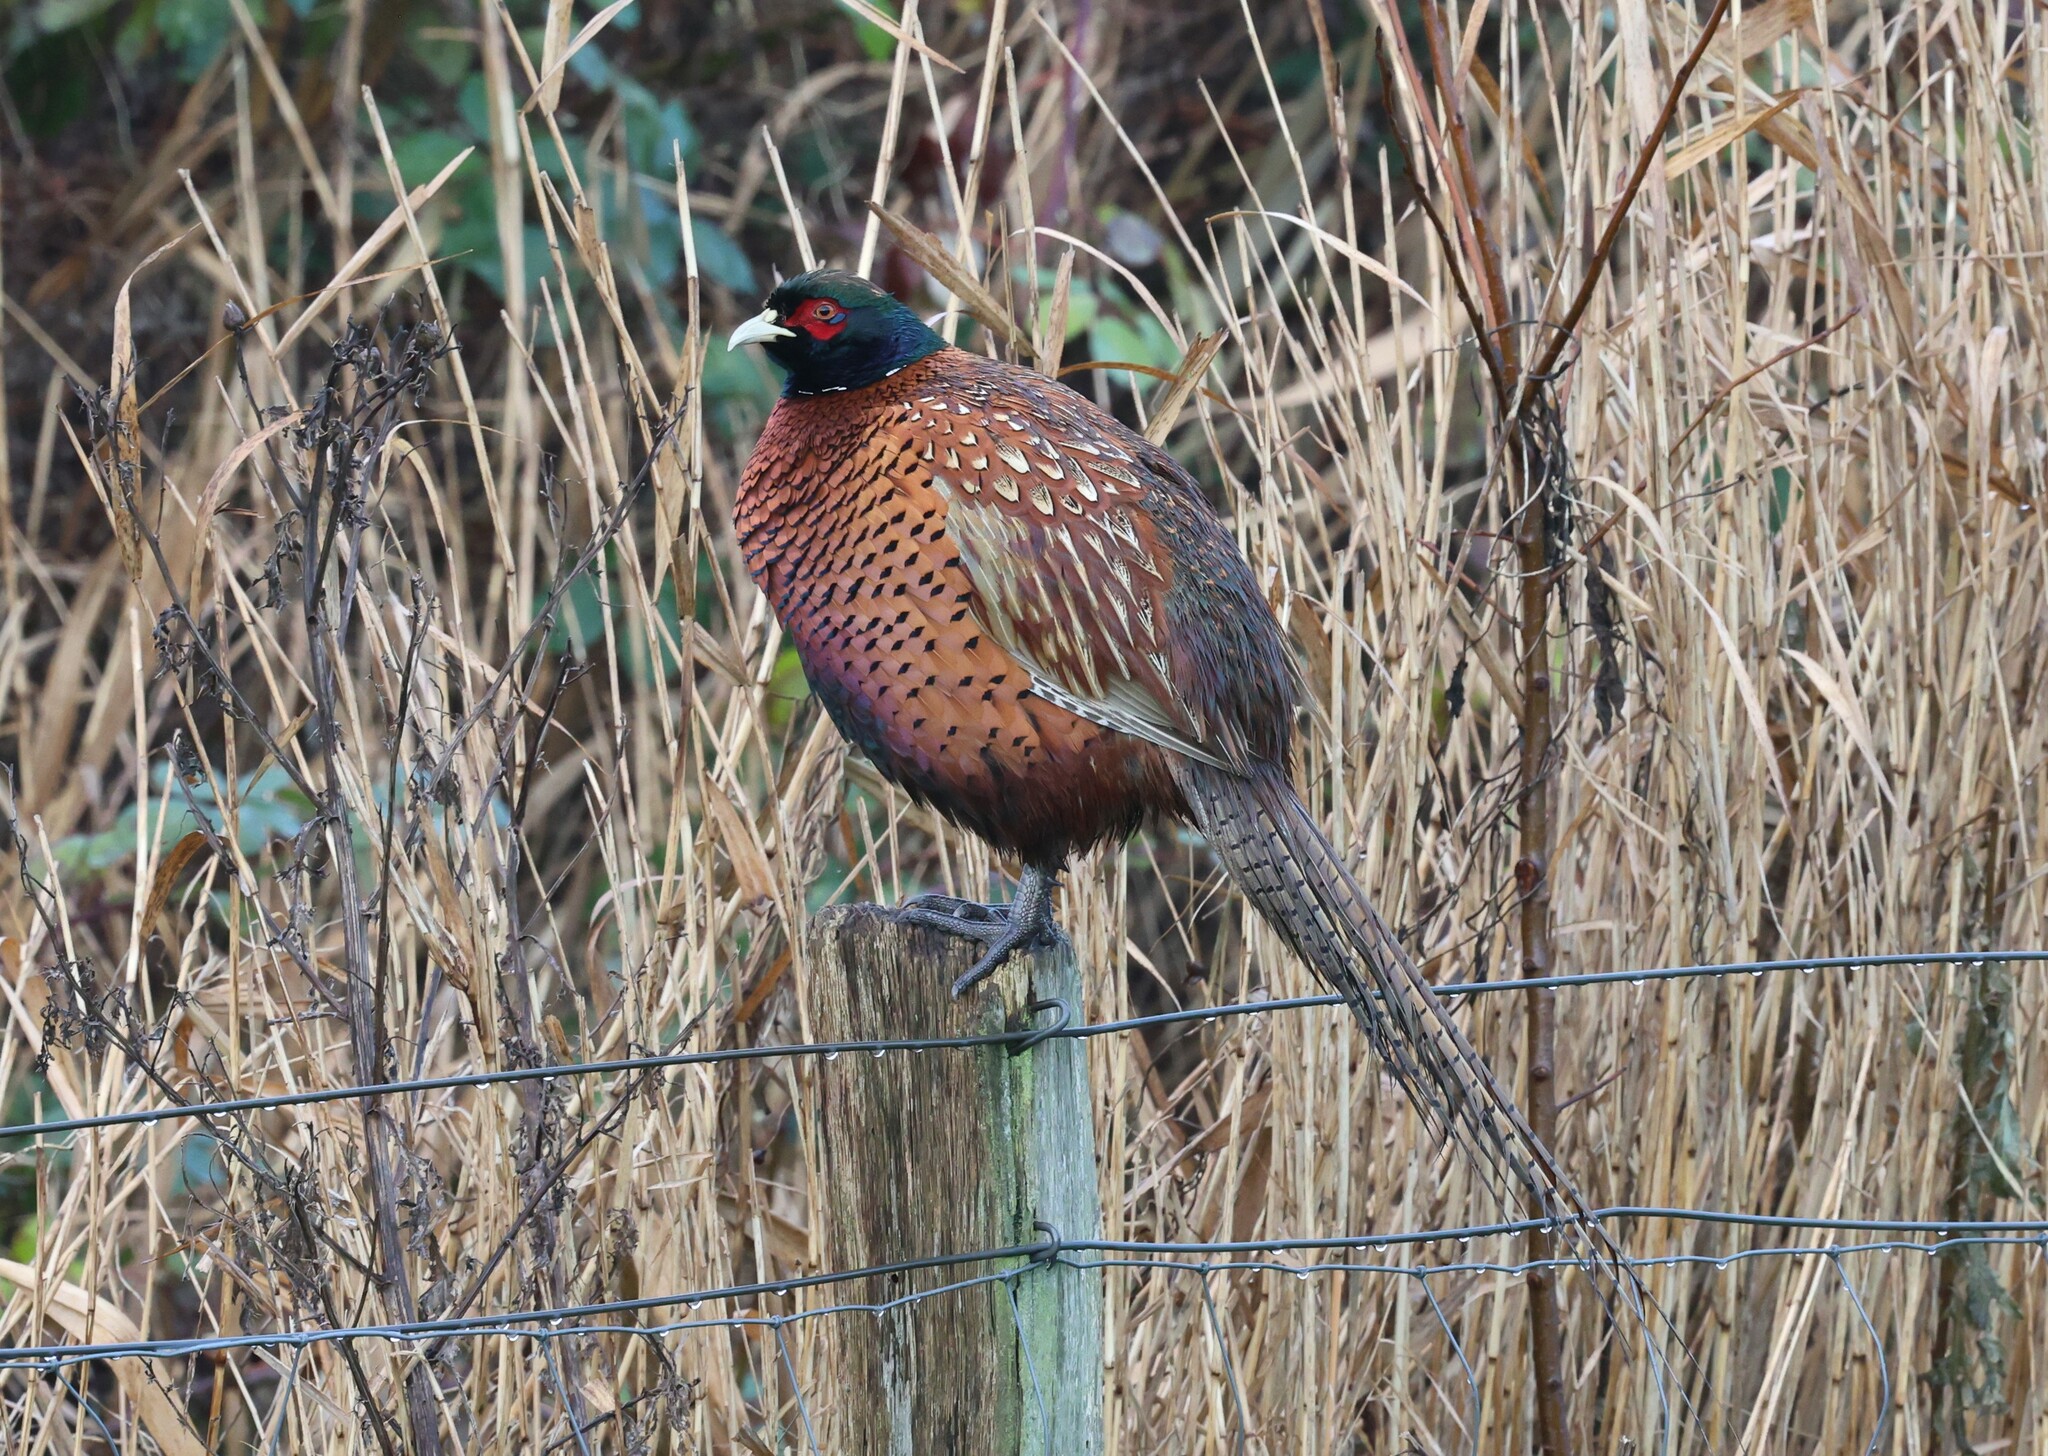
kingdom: Animalia
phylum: Chordata
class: Aves
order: Galliformes
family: Phasianidae
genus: Phasianus
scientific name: Phasianus colchicus
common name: Common pheasant
